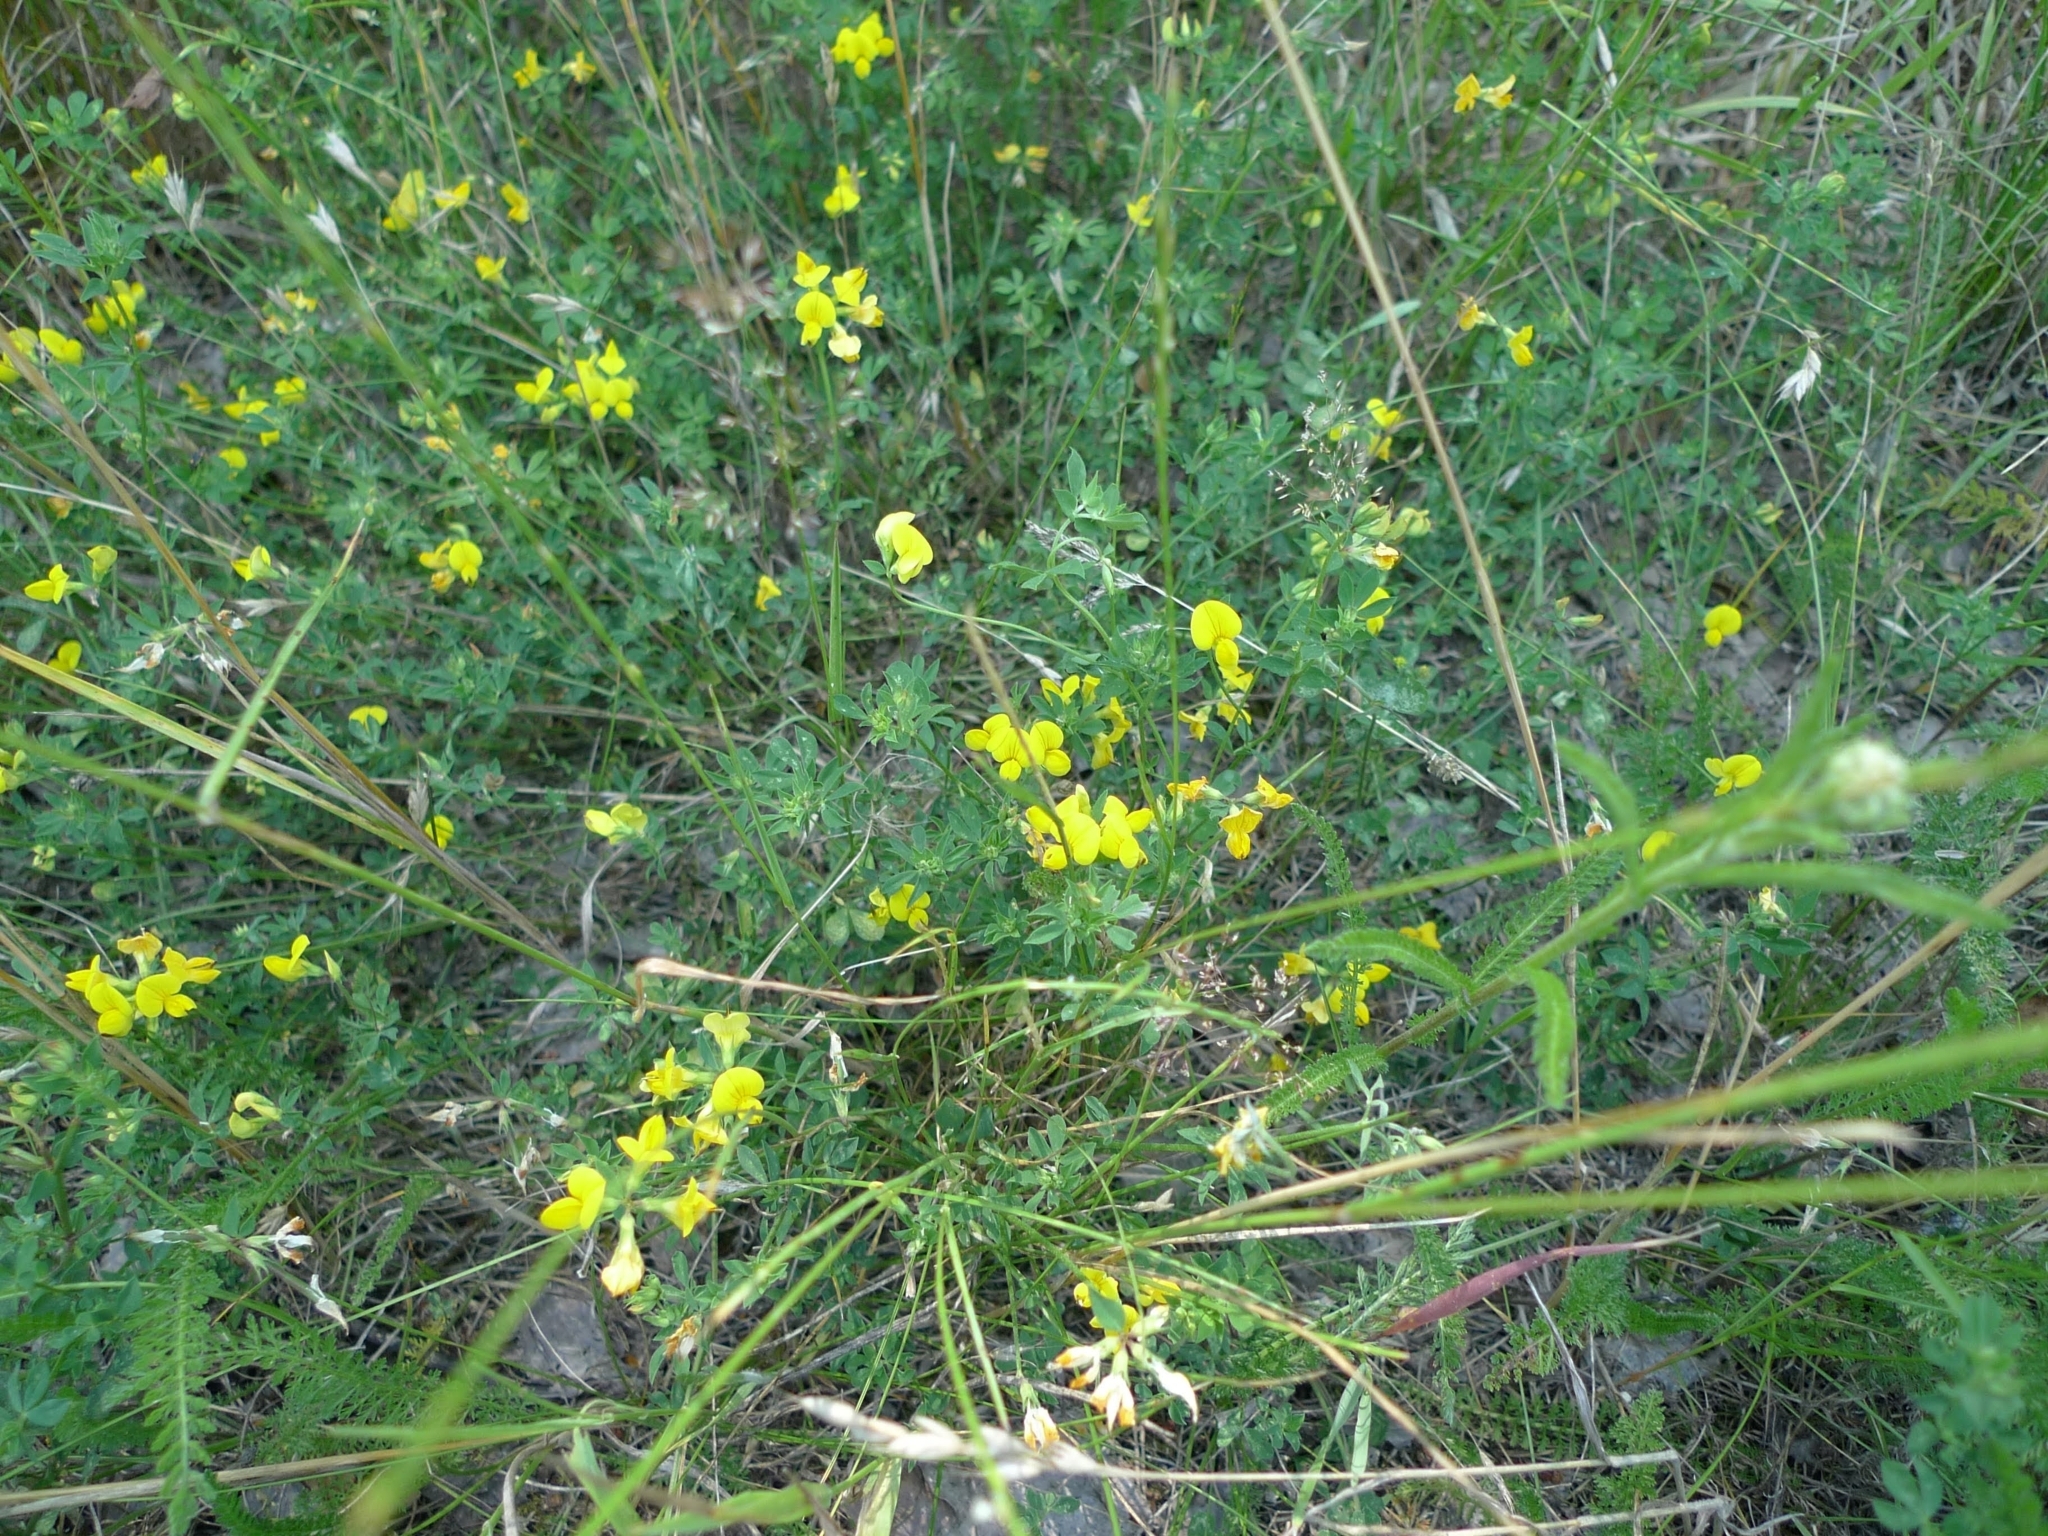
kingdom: Plantae
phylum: Tracheophyta
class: Magnoliopsida
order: Fabales
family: Fabaceae
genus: Lotus
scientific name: Lotus corniculatus
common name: Common bird's-foot-trefoil
